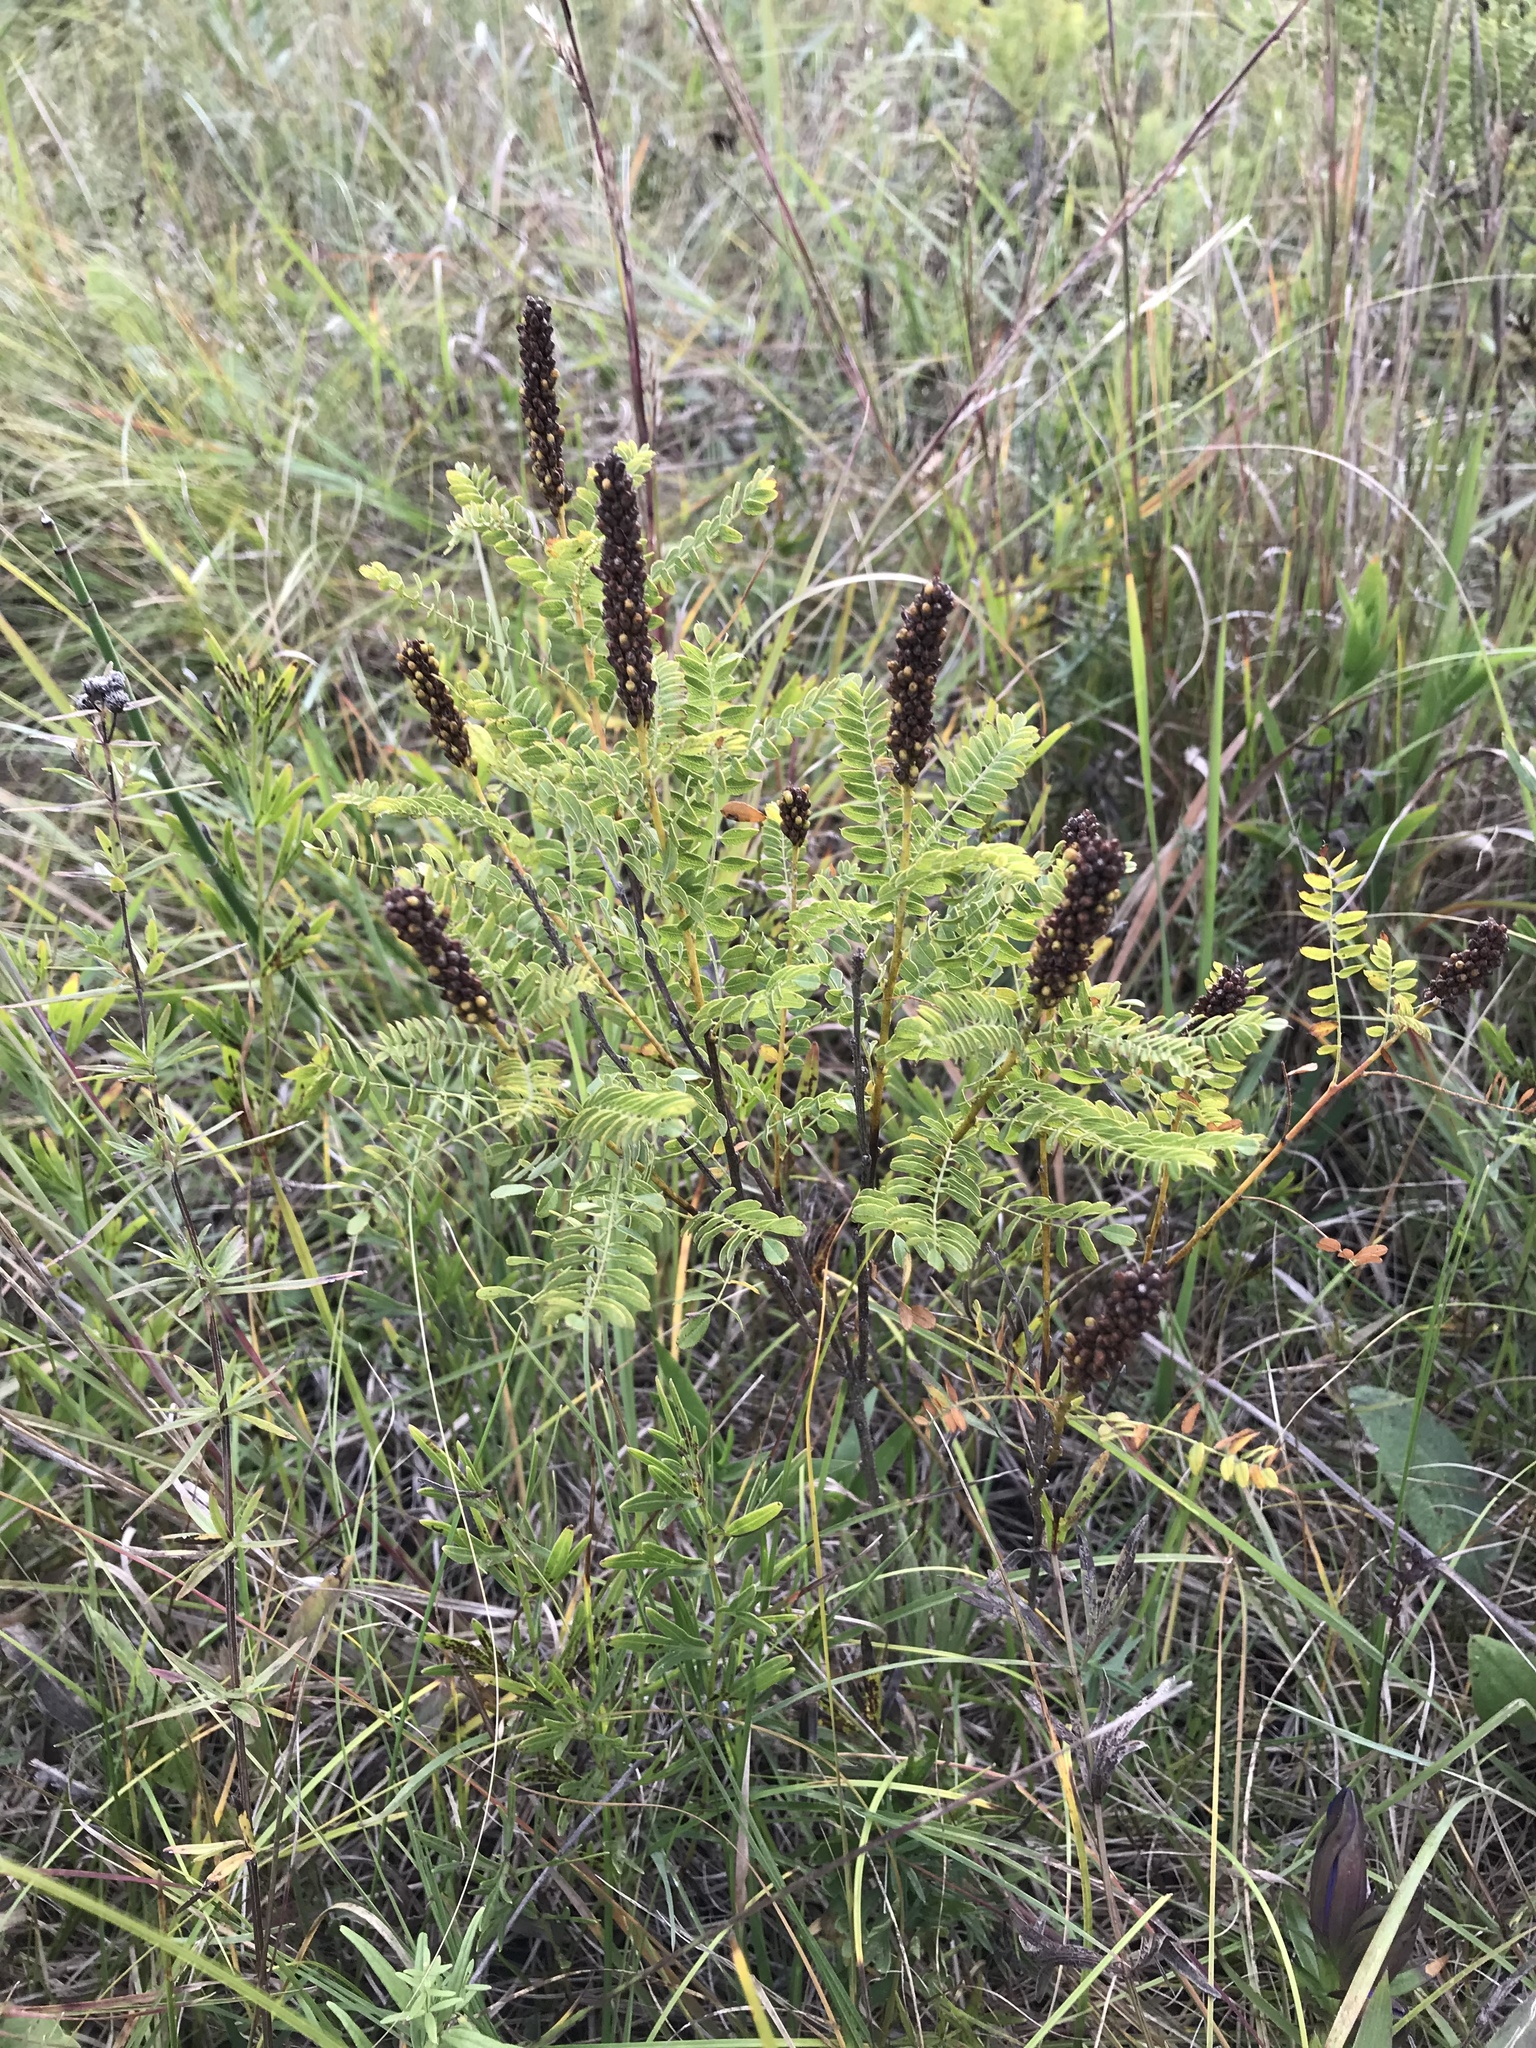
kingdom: Plantae
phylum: Tracheophyta
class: Magnoliopsida
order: Fabales
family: Fabaceae
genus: Amorpha
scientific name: Amorpha nana
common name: Fragrant false indigo
